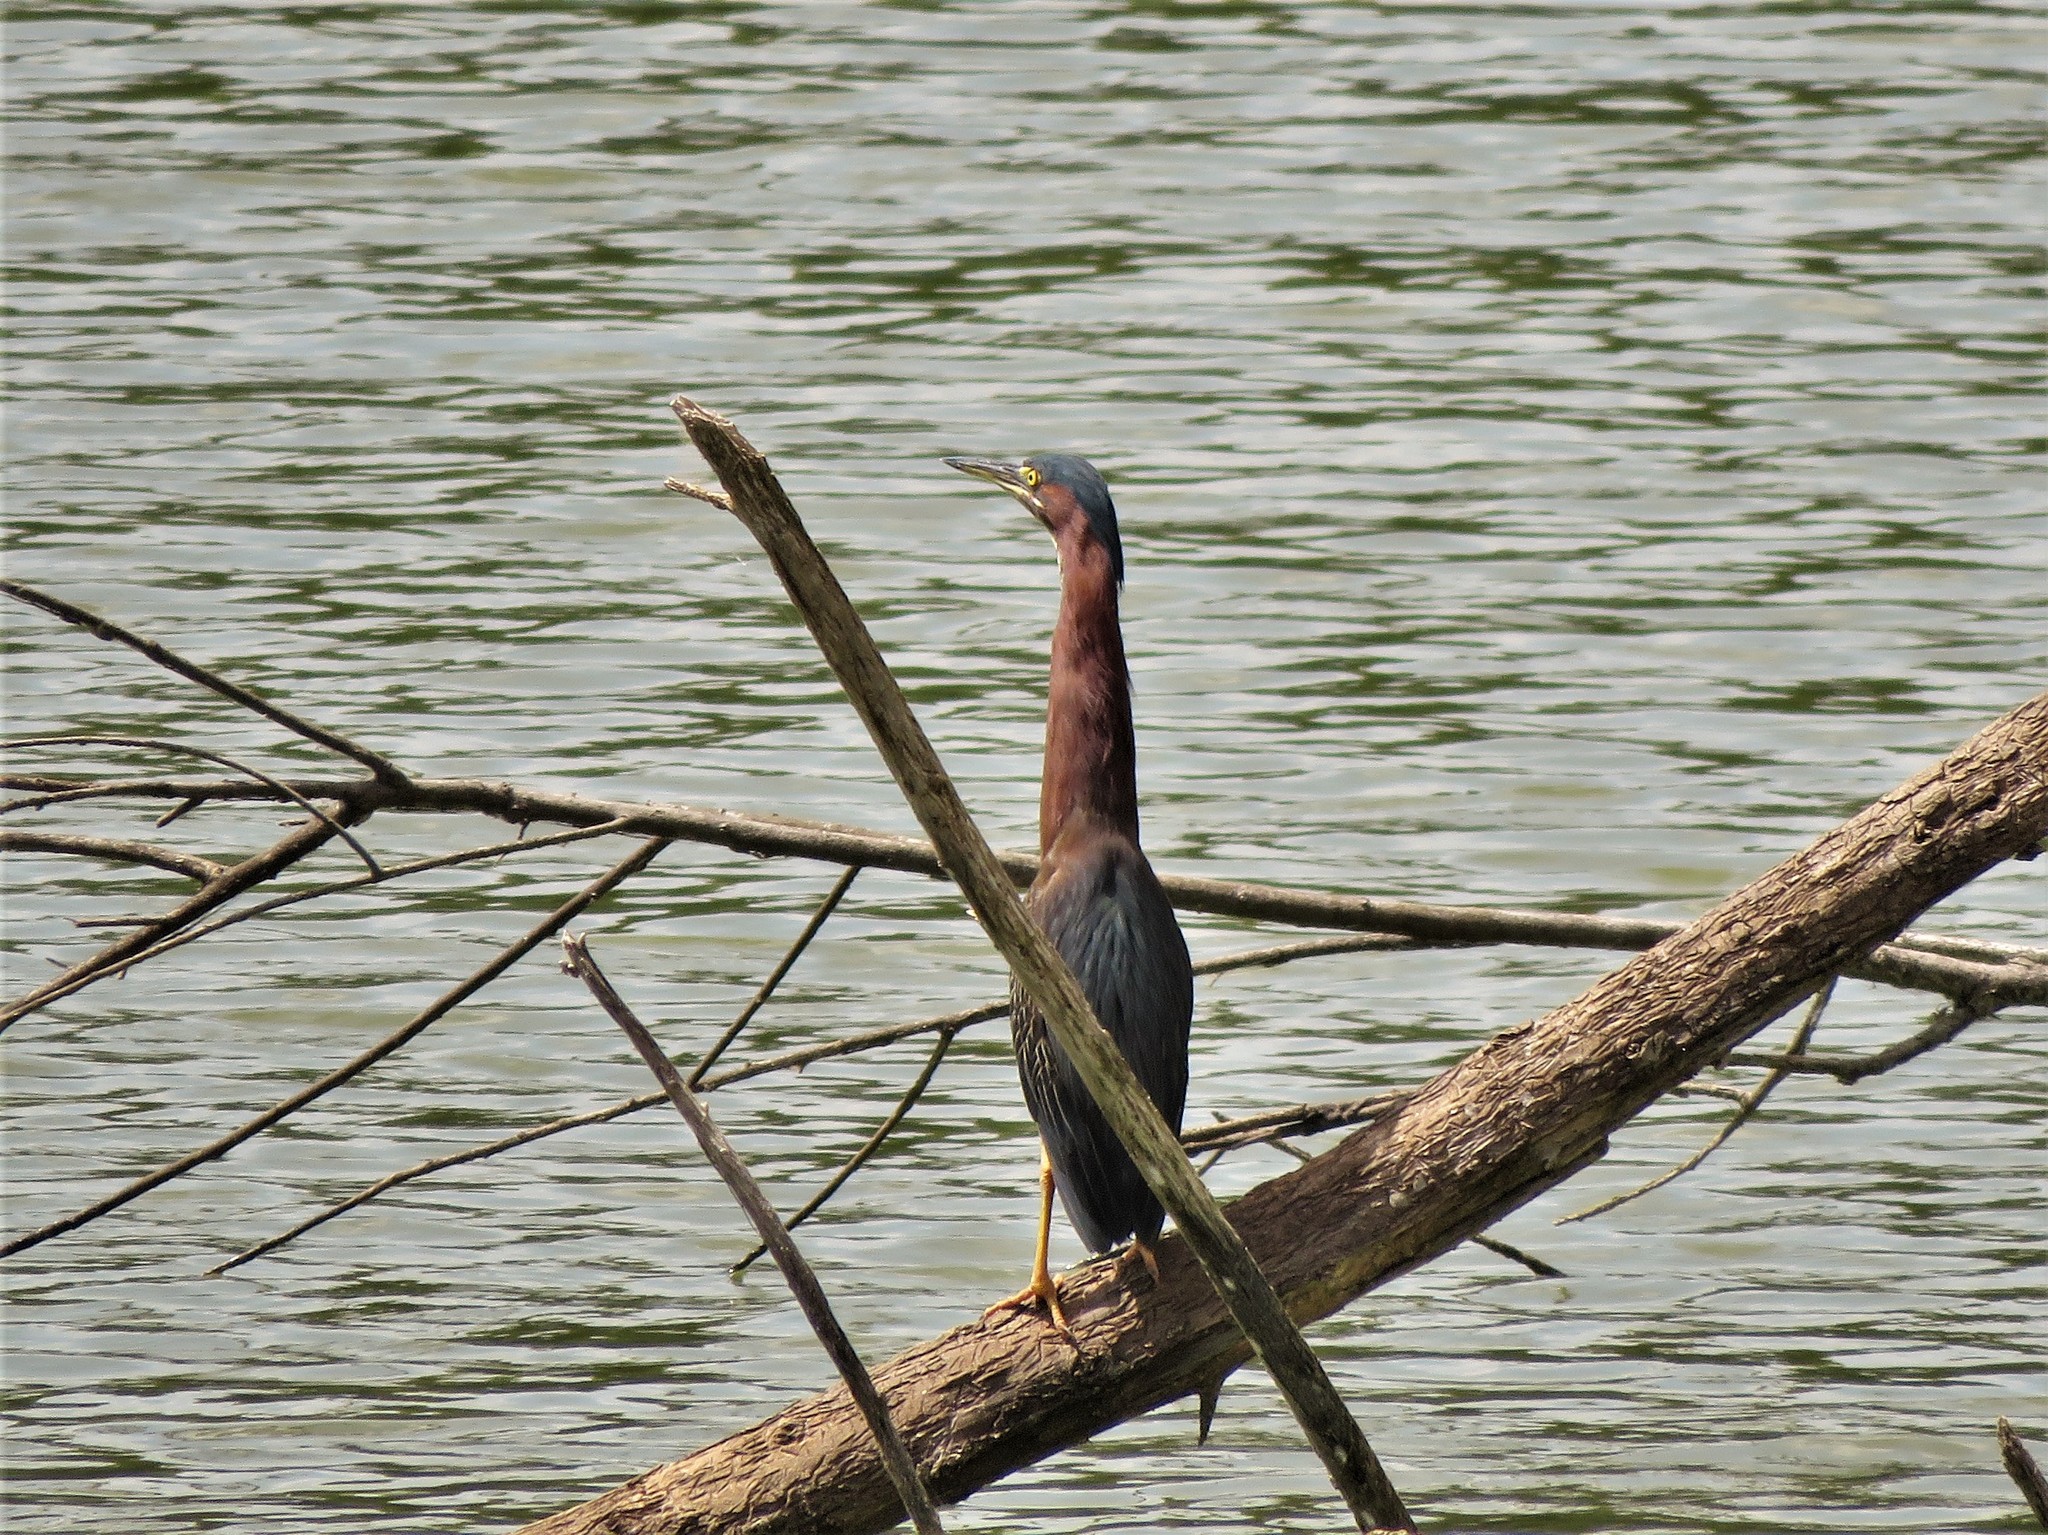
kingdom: Animalia
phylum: Chordata
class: Aves
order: Pelecaniformes
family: Ardeidae
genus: Butorides
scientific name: Butorides virescens
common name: Green heron
